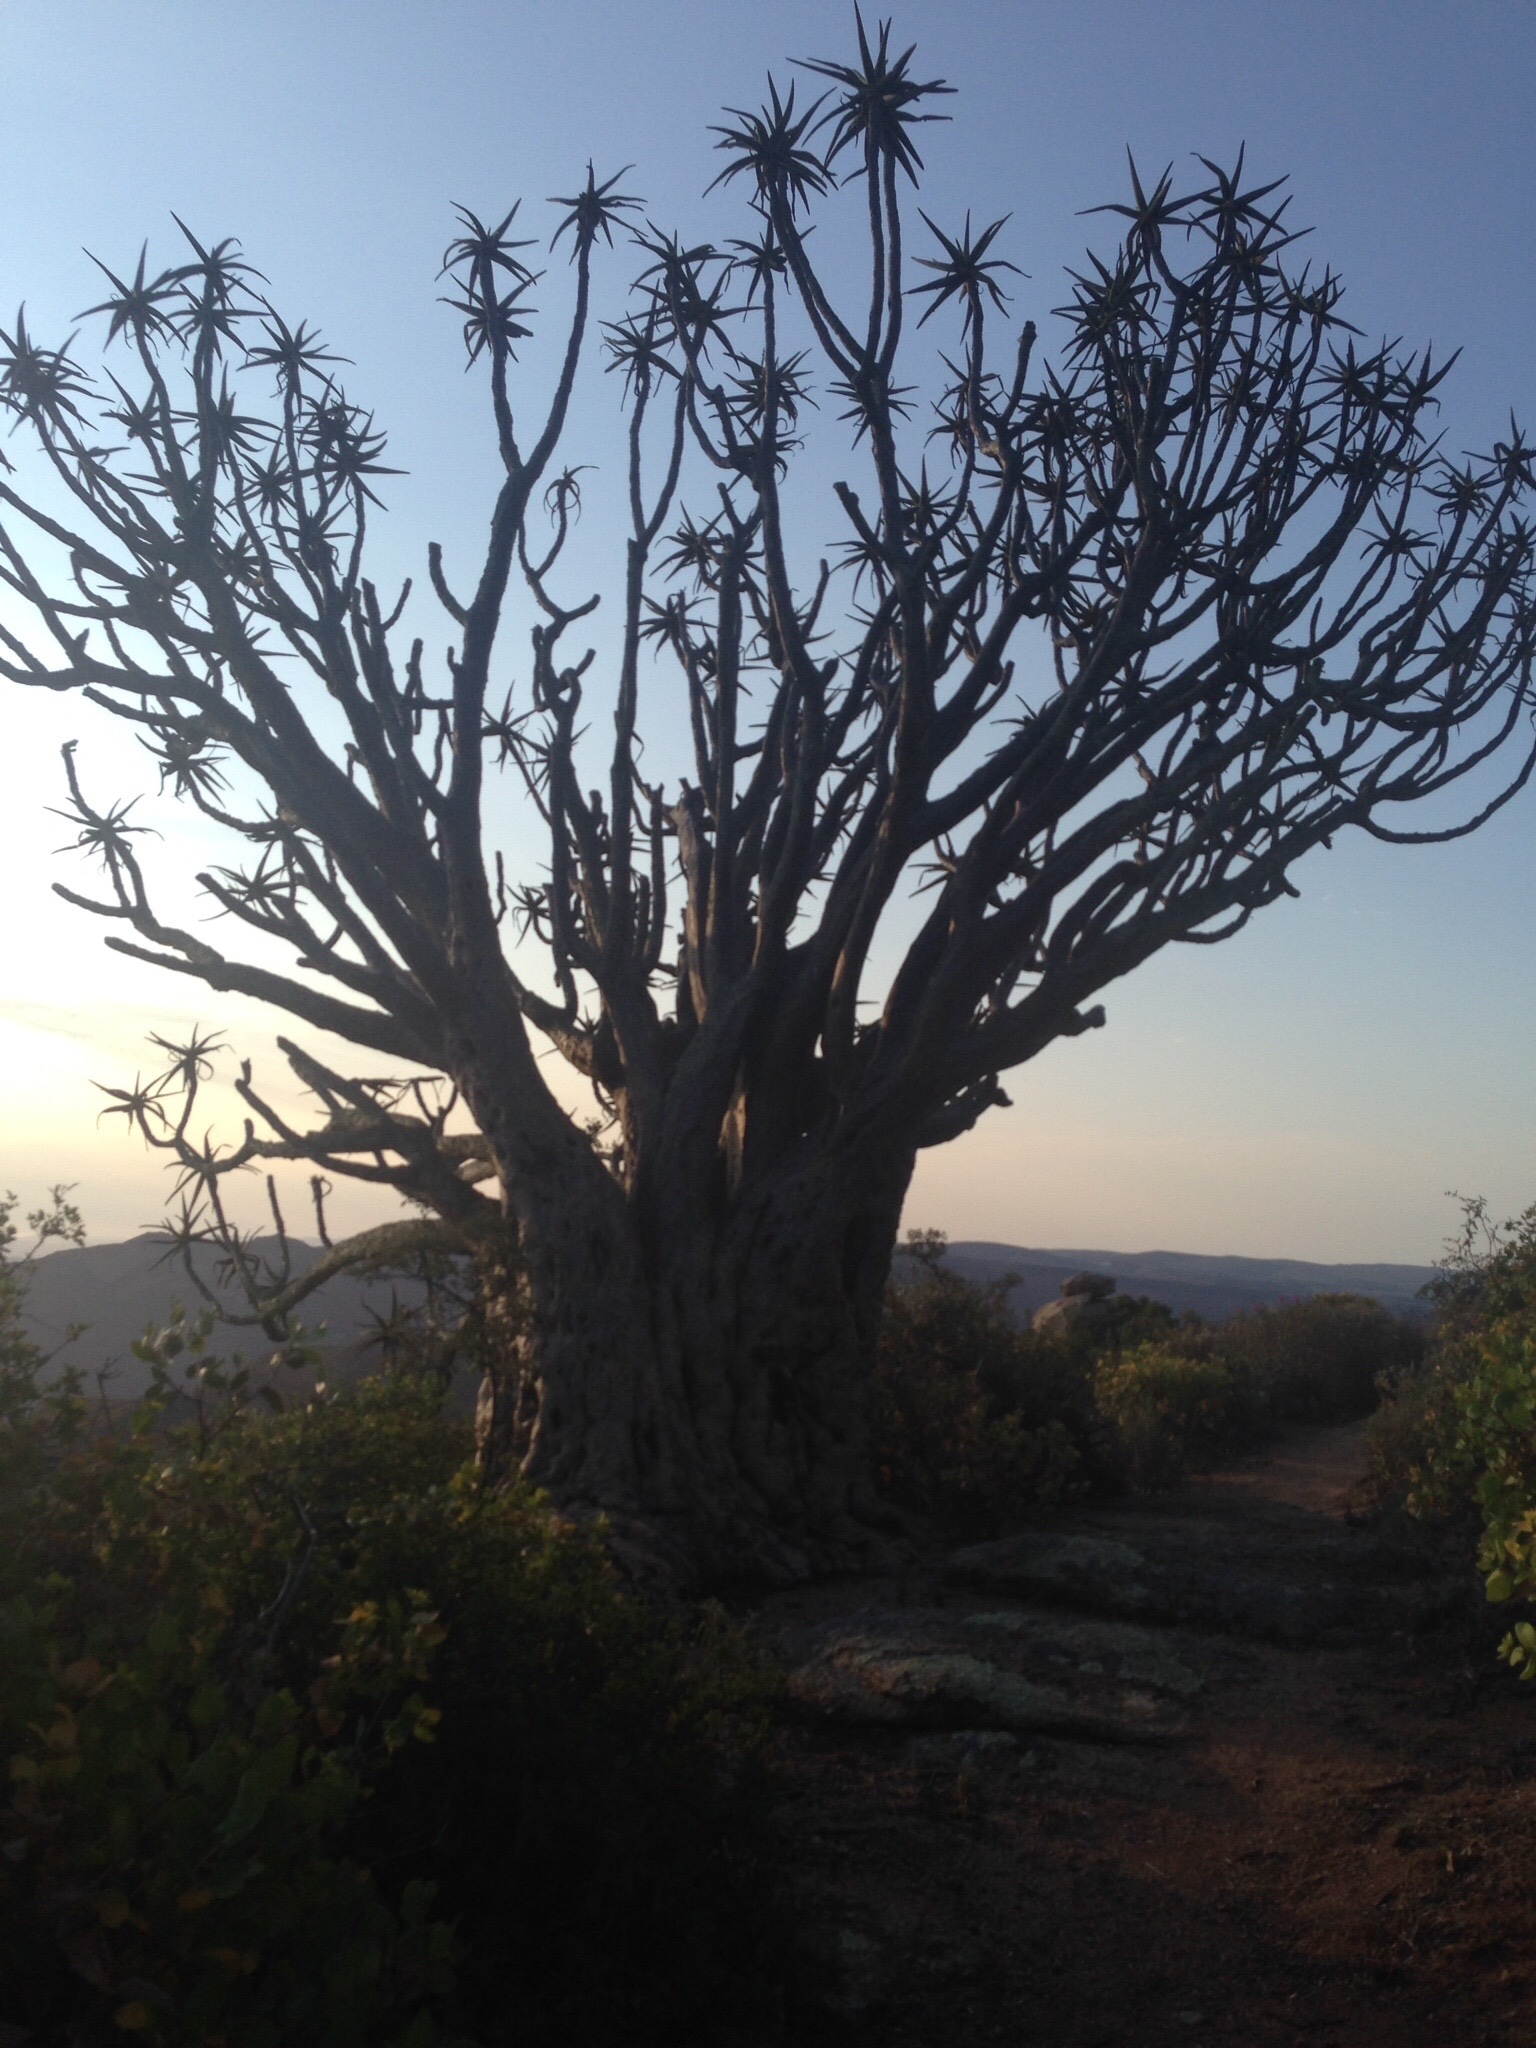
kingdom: Plantae
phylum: Tracheophyta
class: Liliopsida
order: Asparagales
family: Asphodelaceae
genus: Aloidendron
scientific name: Aloidendron dichotomum
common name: Quiver tree
